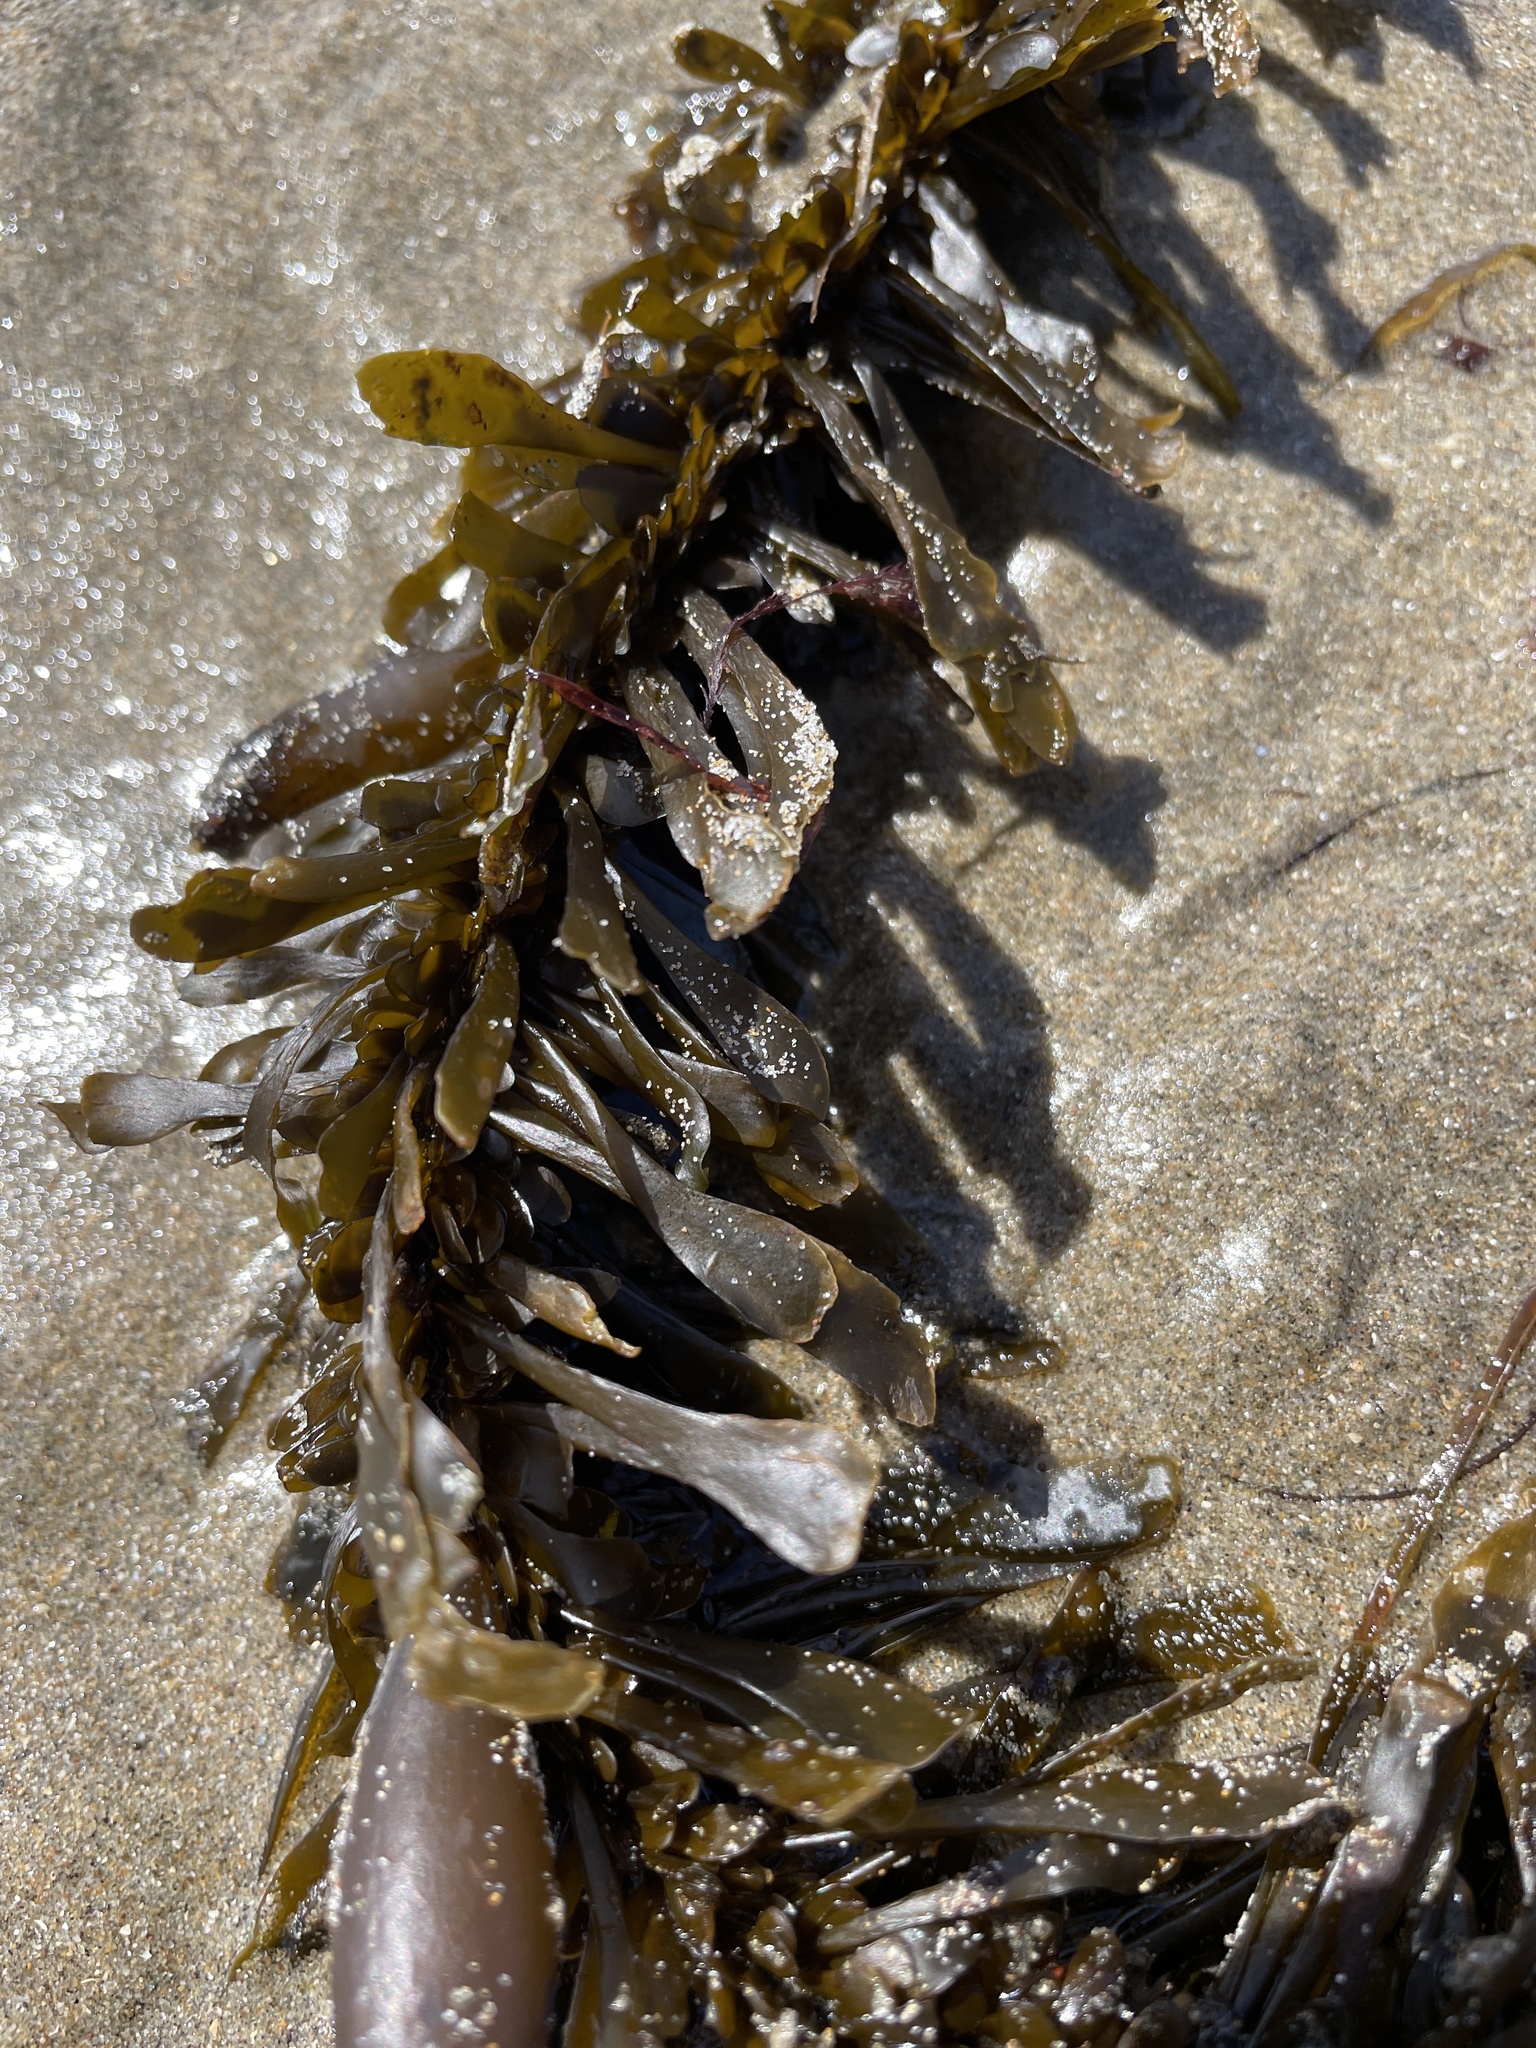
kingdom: Chromista
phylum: Ochrophyta
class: Phaeophyceae
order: Laminariales
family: Lessoniaceae
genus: Egregia
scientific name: Egregia menziesii
